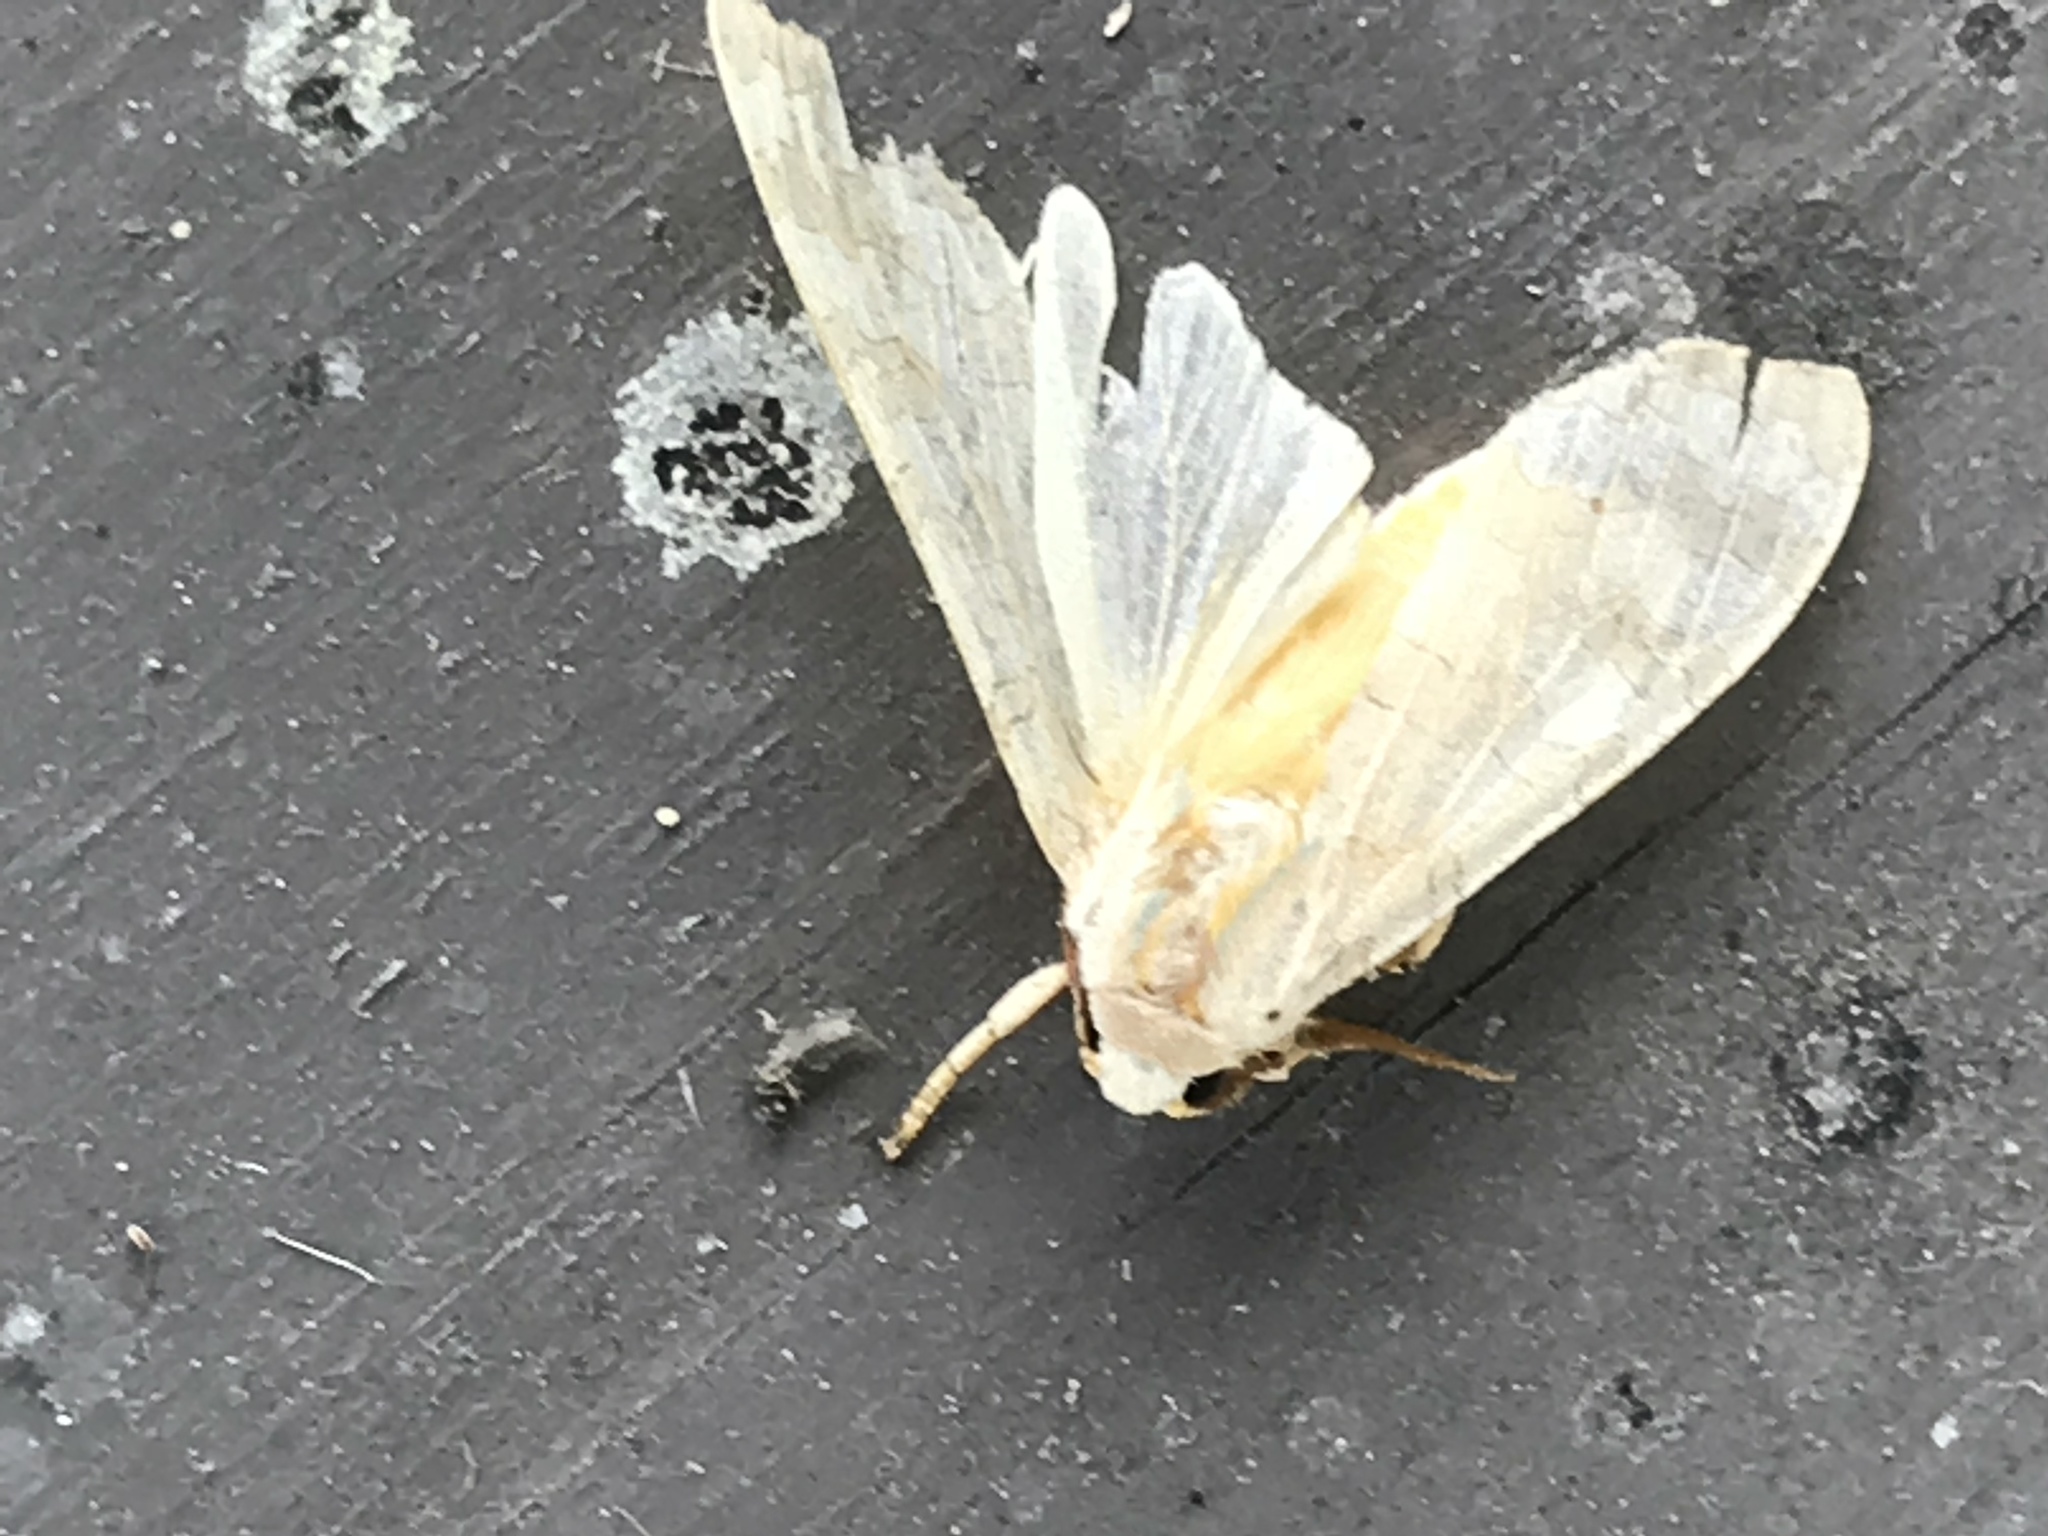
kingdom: Animalia
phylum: Arthropoda
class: Insecta
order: Lepidoptera
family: Erebidae
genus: Halysidota
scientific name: Halysidota
